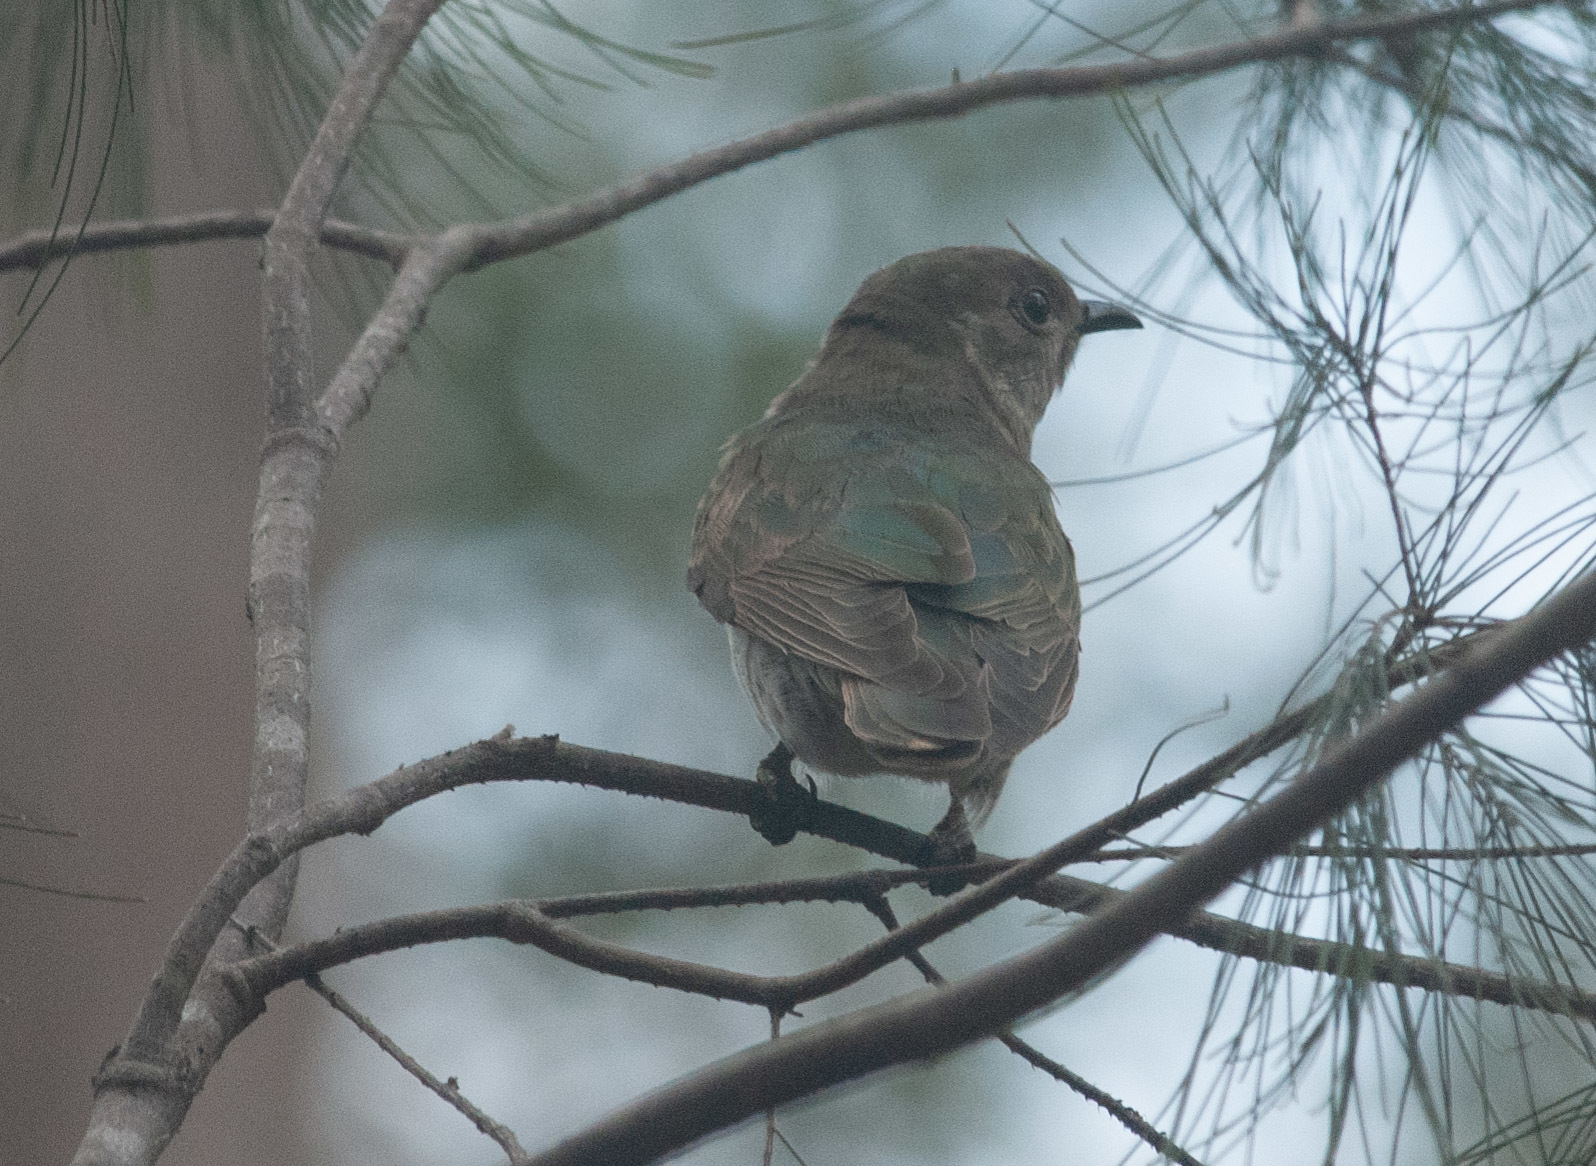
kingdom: Animalia
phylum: Chordata
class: Aves
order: Cuculiformes
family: Cuculidae
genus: Chrysococcyx
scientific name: Chrysococcyx lucidus
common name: Shining bronze cuckoo
